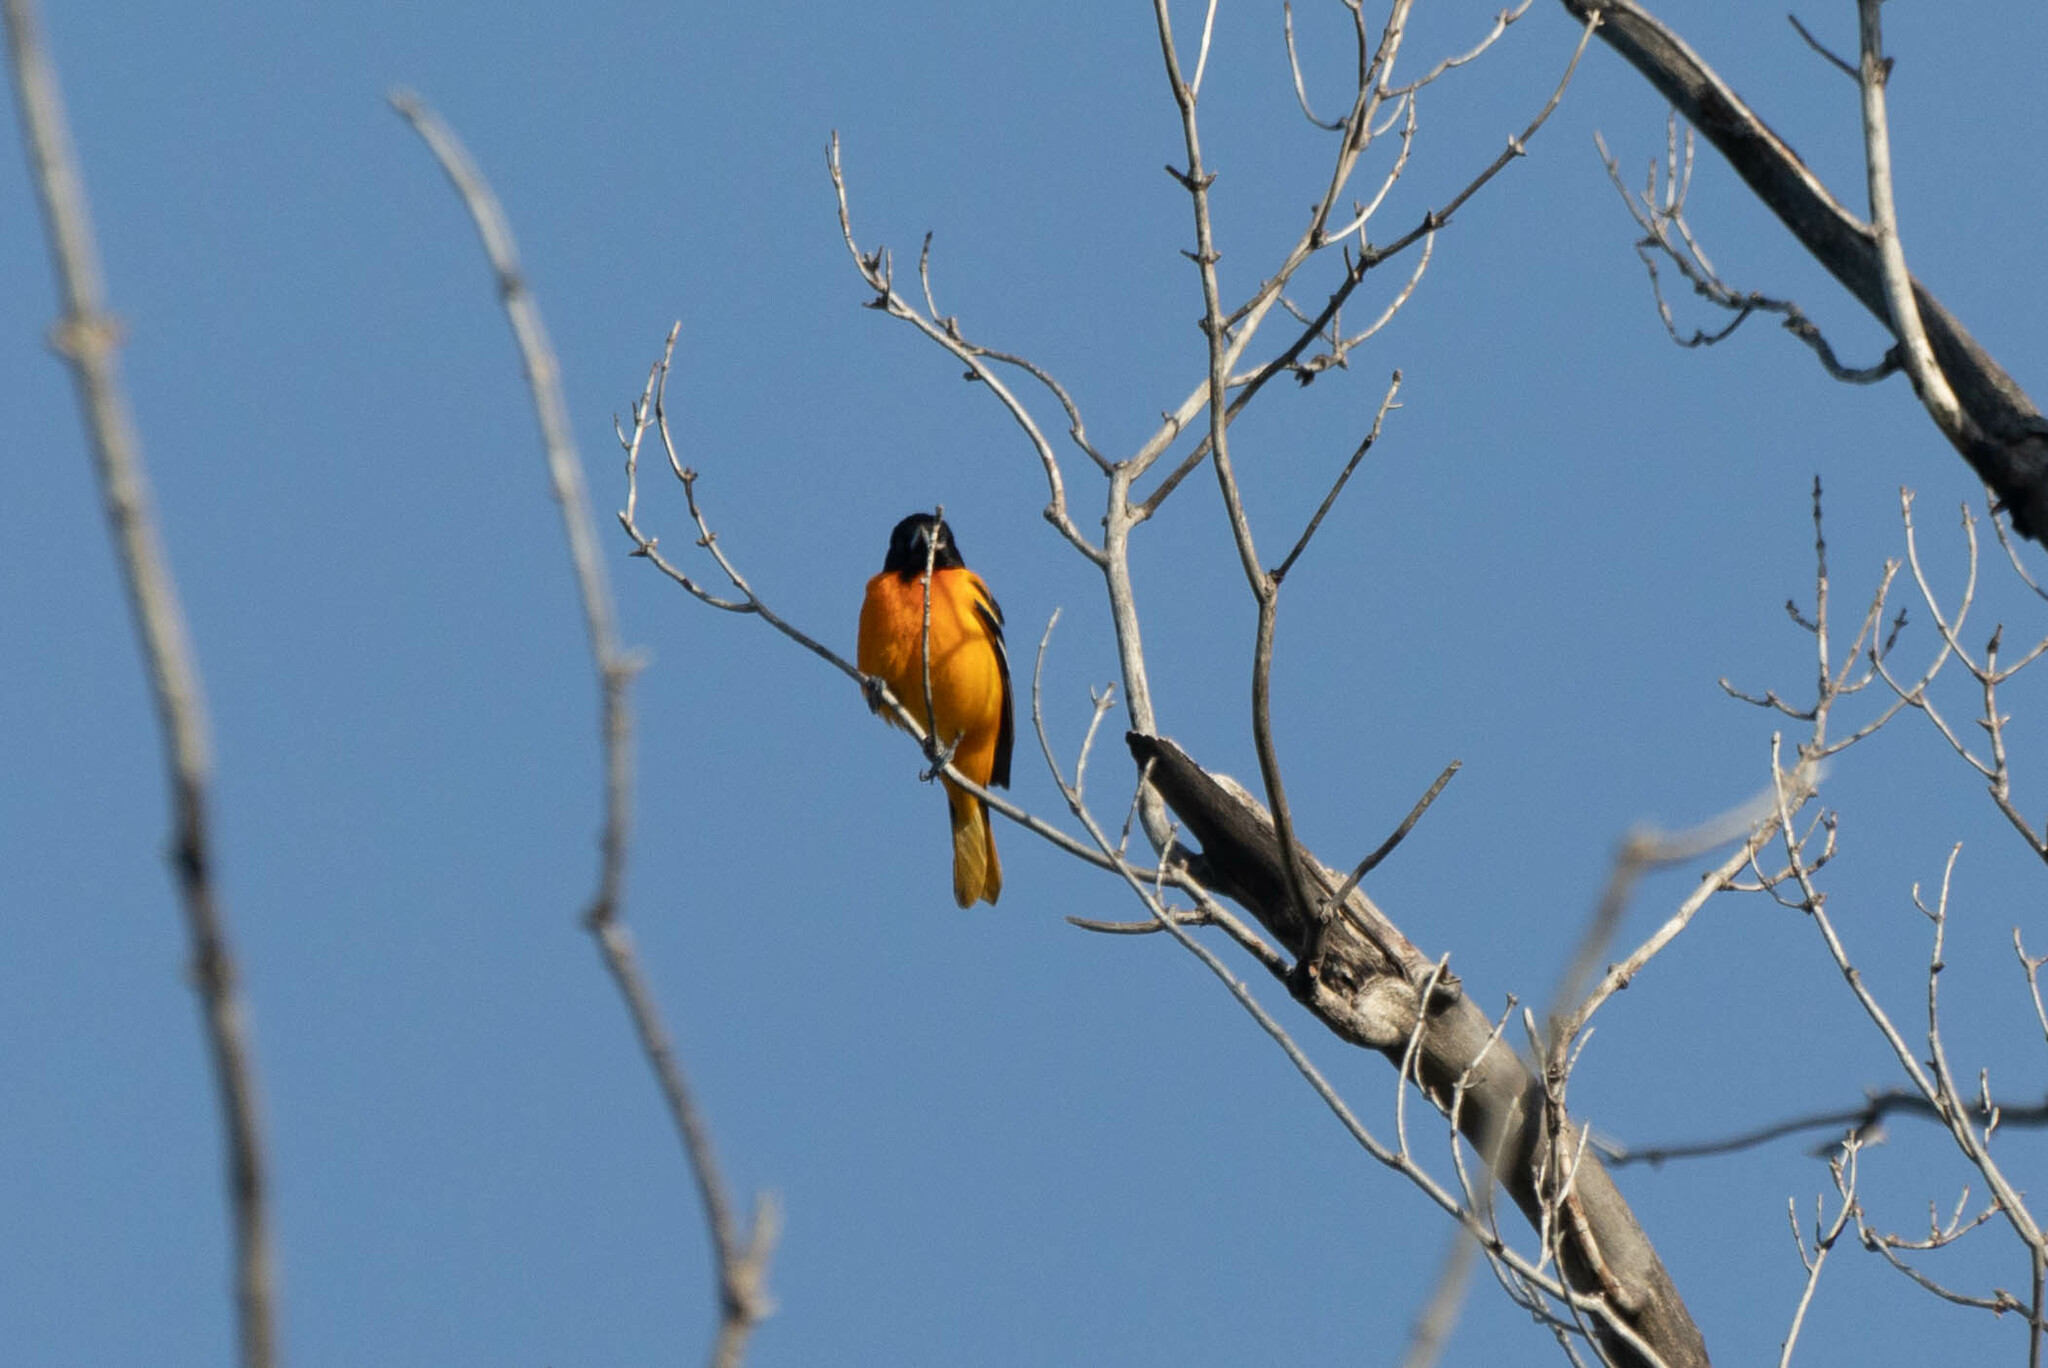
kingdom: Animalia
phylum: Chordata
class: Aves
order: Passeriformes
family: Icteridae
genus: Icterus
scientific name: Icterus galbula
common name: Baltimore oriole
